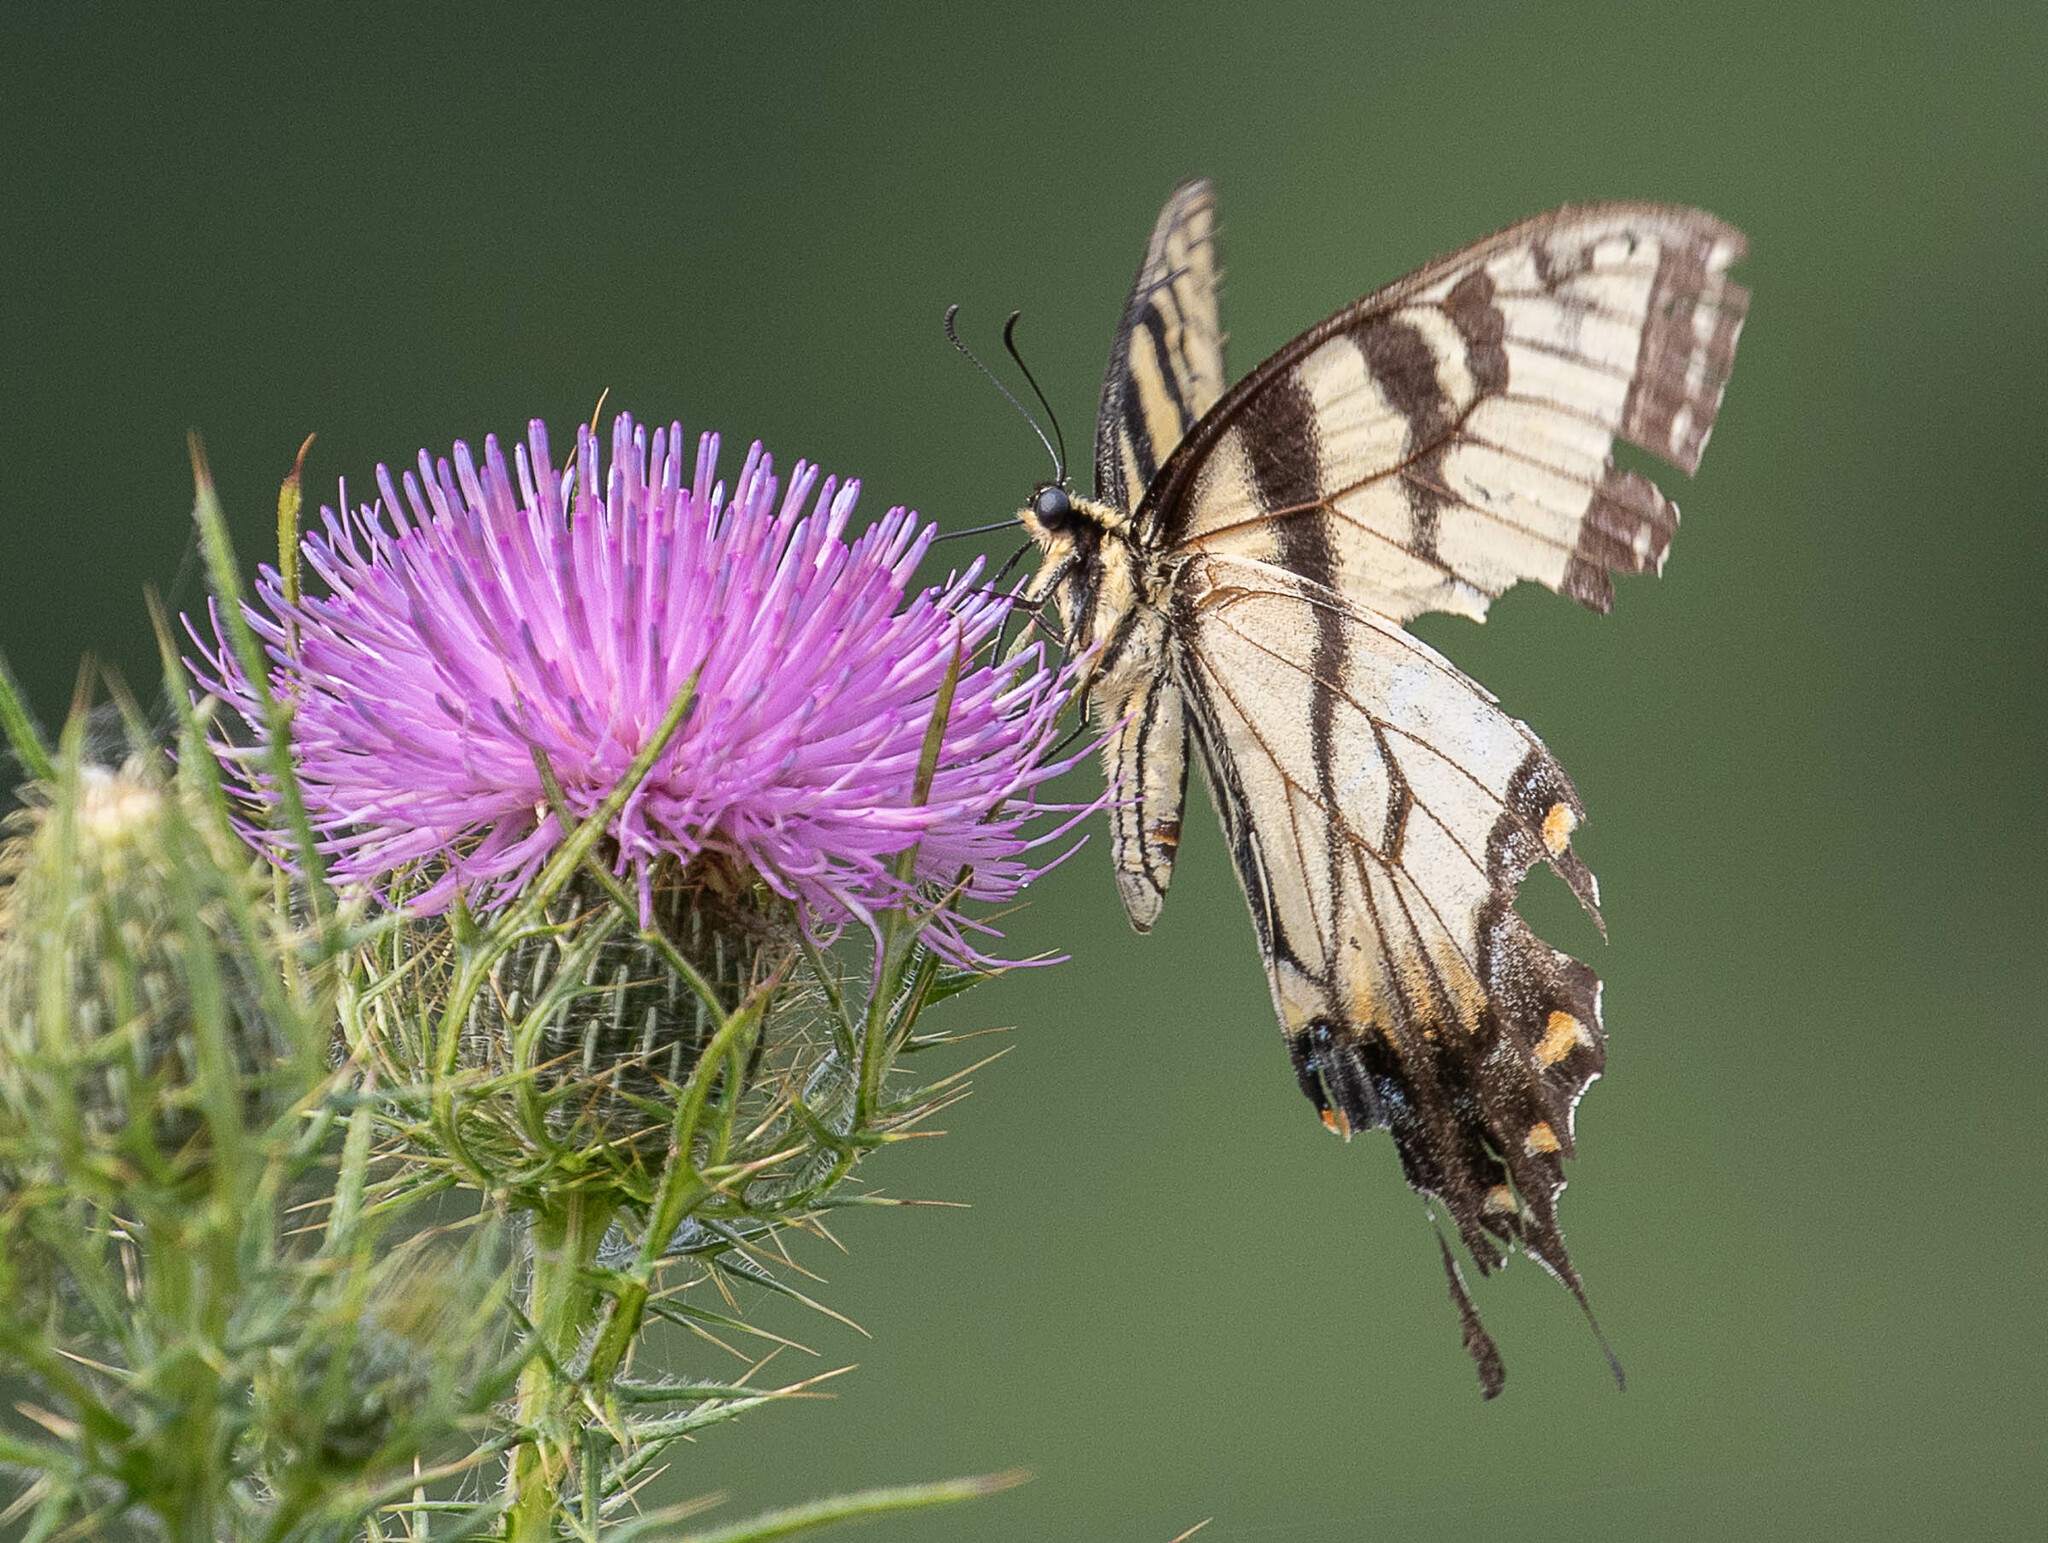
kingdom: Animalia
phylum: Arthropoda
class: Insecta
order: Lepidoptera
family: Papilionidae
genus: Papilio
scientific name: Papilio glaucus
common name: Tiger swallowtail
